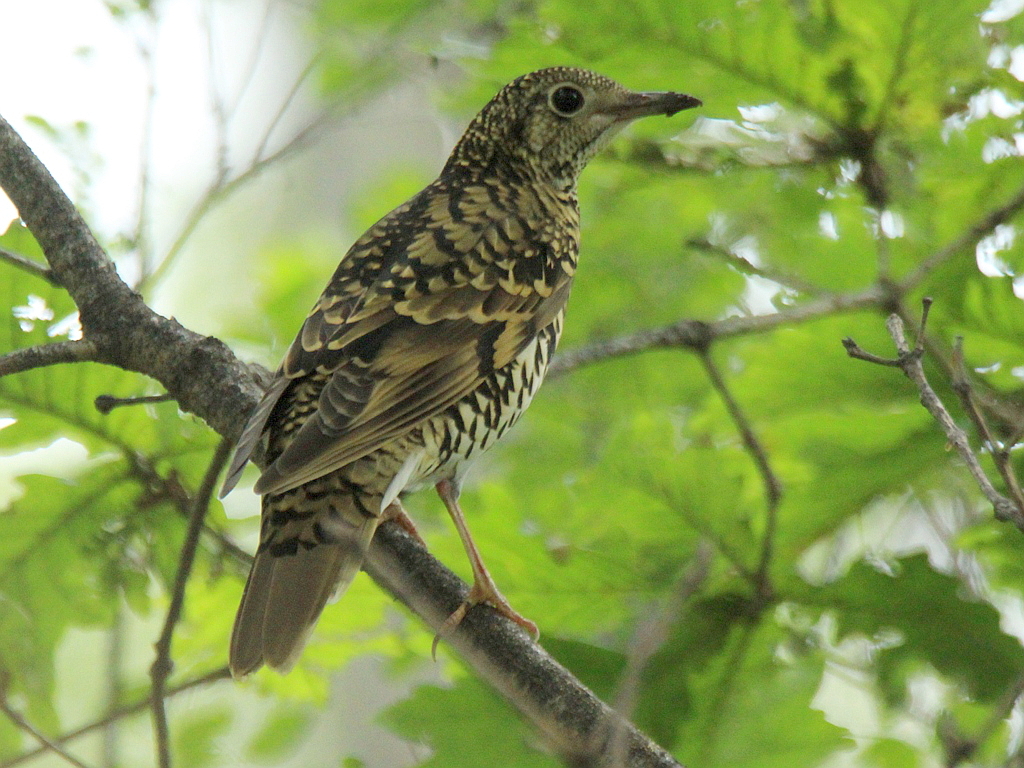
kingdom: Animalia
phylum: Chordata
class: Aves
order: Passeriformes
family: Turdidae
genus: Zoothera
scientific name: Zoothera aurea
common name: White's thrush
